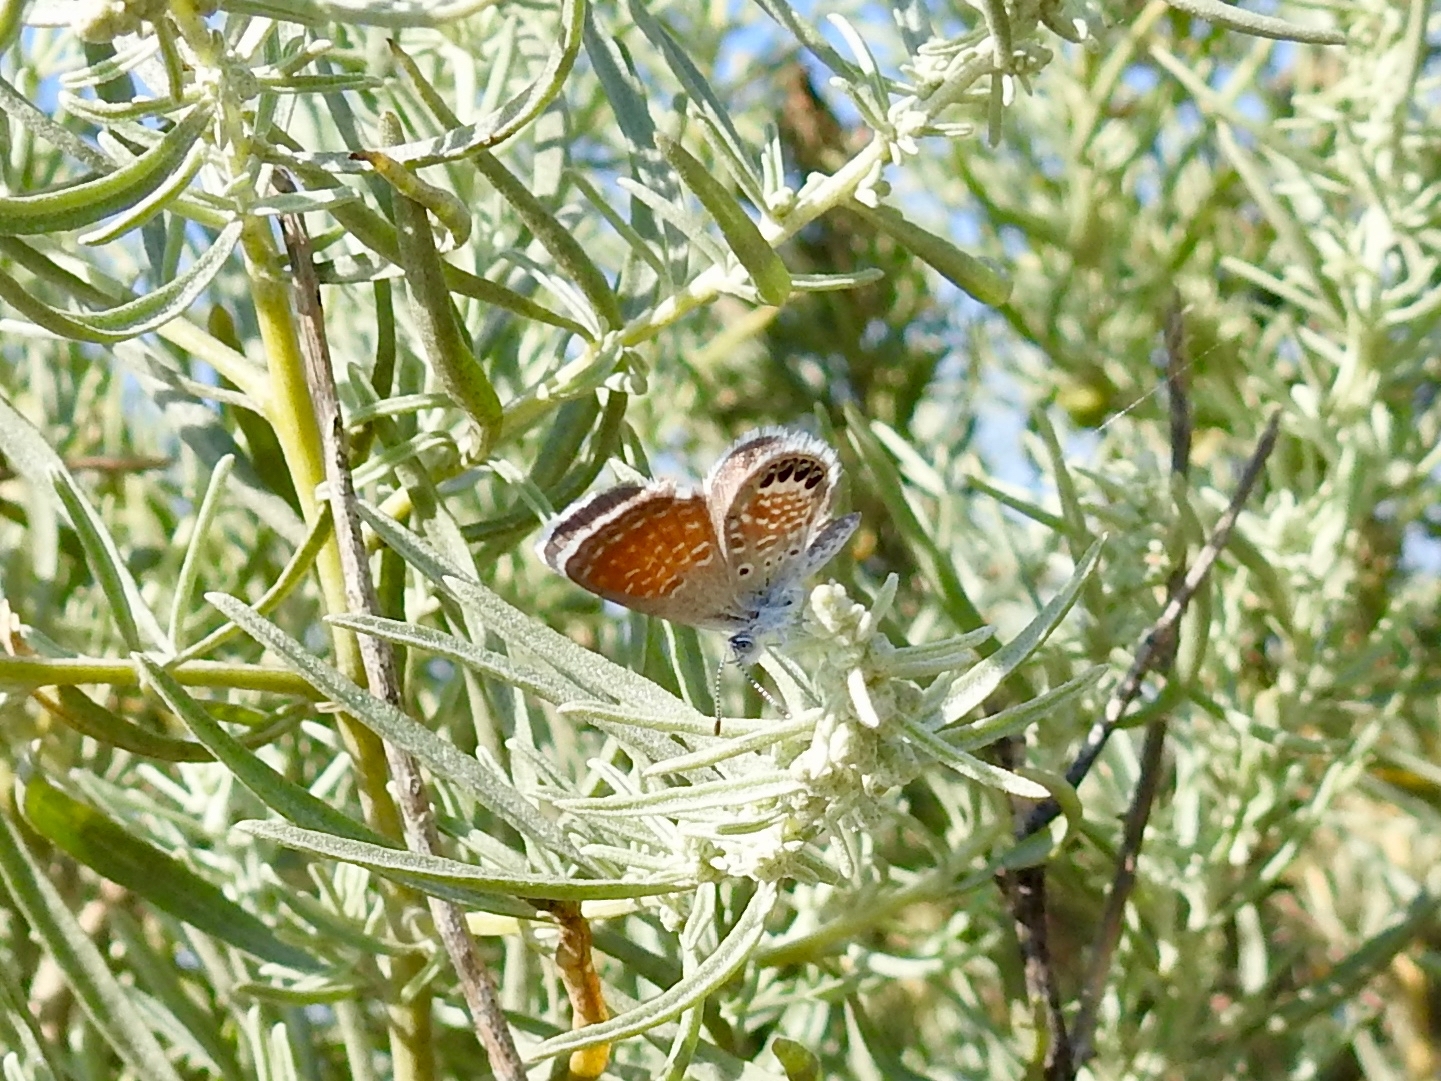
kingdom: Animalia
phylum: Arthropoda
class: Insecta
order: Lepidoptera
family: Lycaenidae
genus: Brephidium
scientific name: Brephidium exilis
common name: Pygmy blue
